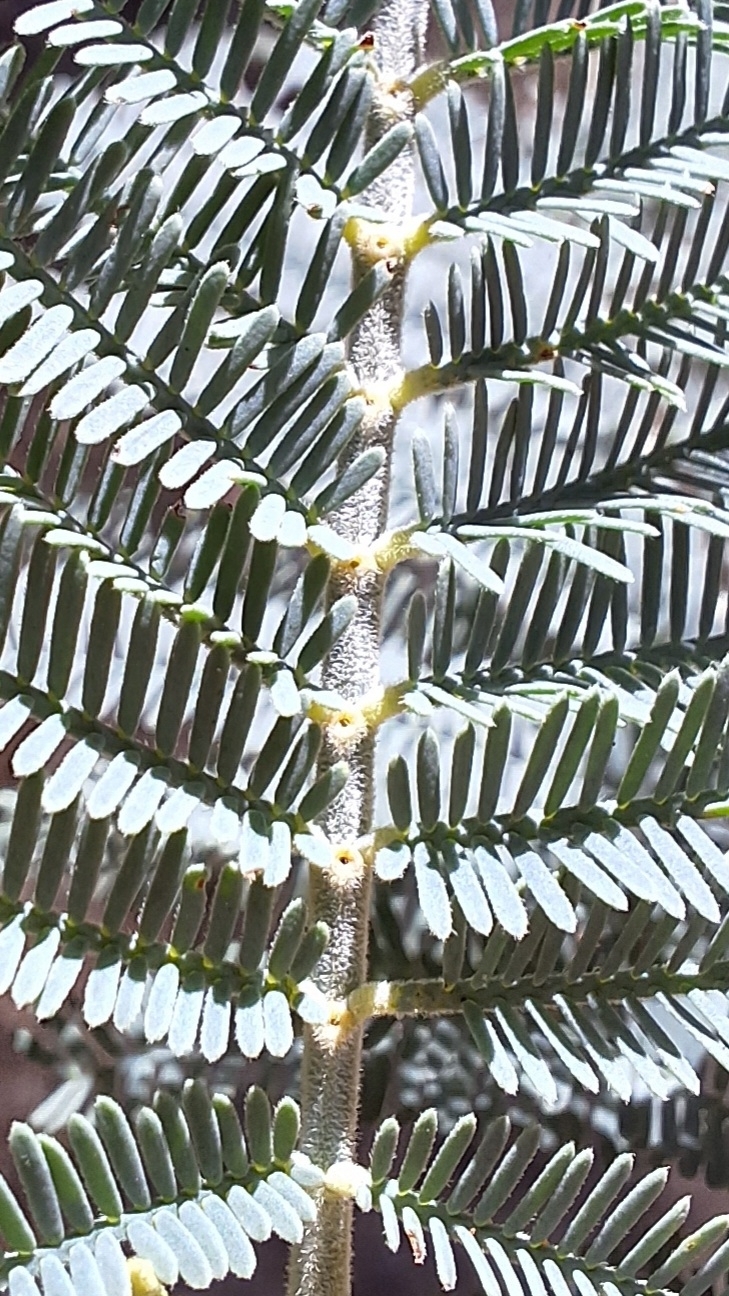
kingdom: Plantae
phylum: Tracheophyta
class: Magnoliopsida
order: Fabales
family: Fabaceae
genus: Acacia
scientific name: Acacia dealbata
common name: Silver wattle
